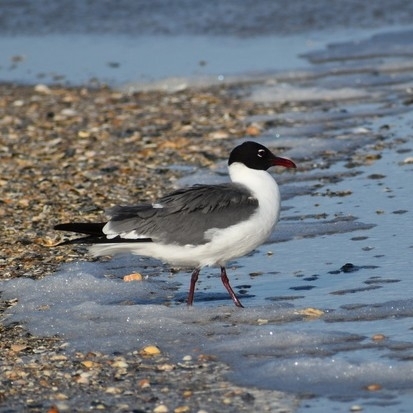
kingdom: Animalia
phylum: Chordata
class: Aves
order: Charadriiformes
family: Laridae
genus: Leucophaeus
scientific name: Leucophaeus atricilla
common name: Laughing gull
